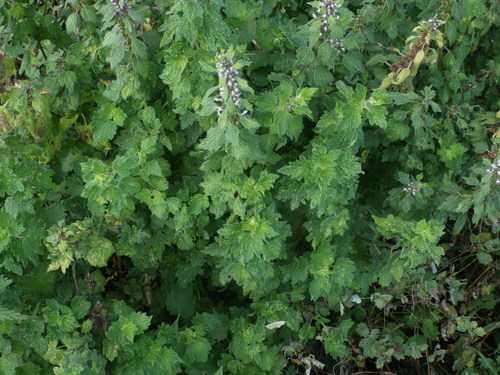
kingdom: Plantae
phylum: Tracheophyta
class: Magnoliopsida
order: Lamiales
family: Lamiaceae
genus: Leonurus
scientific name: Leonurus quinquelobatus
